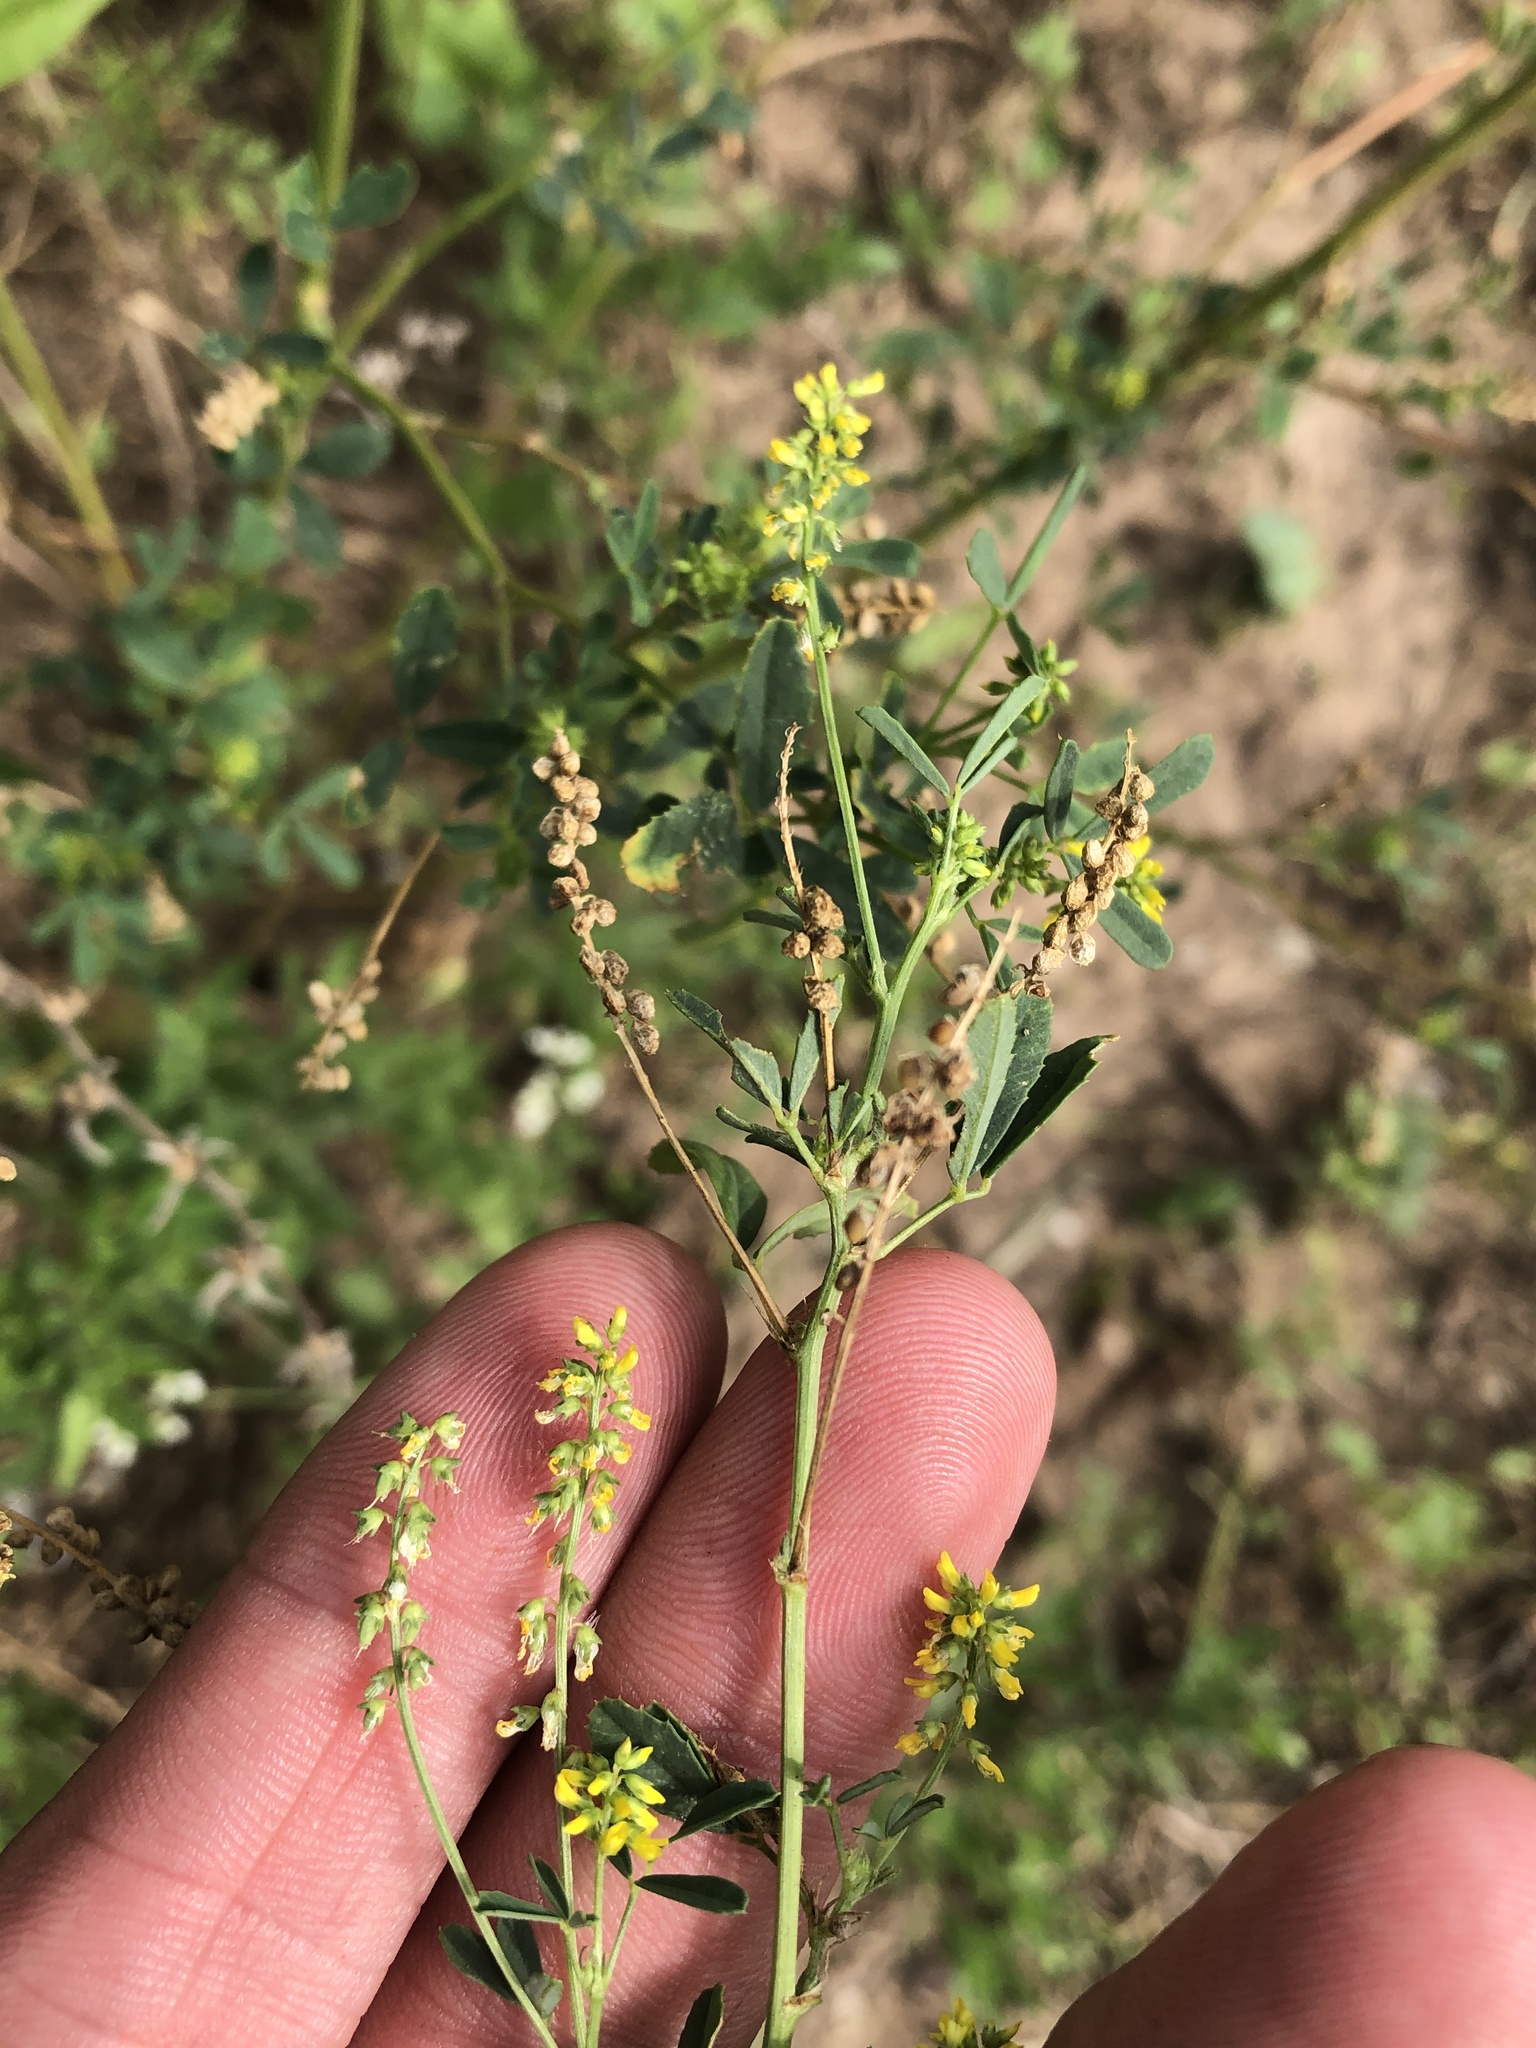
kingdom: Plantae
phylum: Tracheophyta
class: Magnoliopsida
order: Fabales
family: Fabaceae
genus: Melilotus
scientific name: Melilotus indicus
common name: Small melilot
